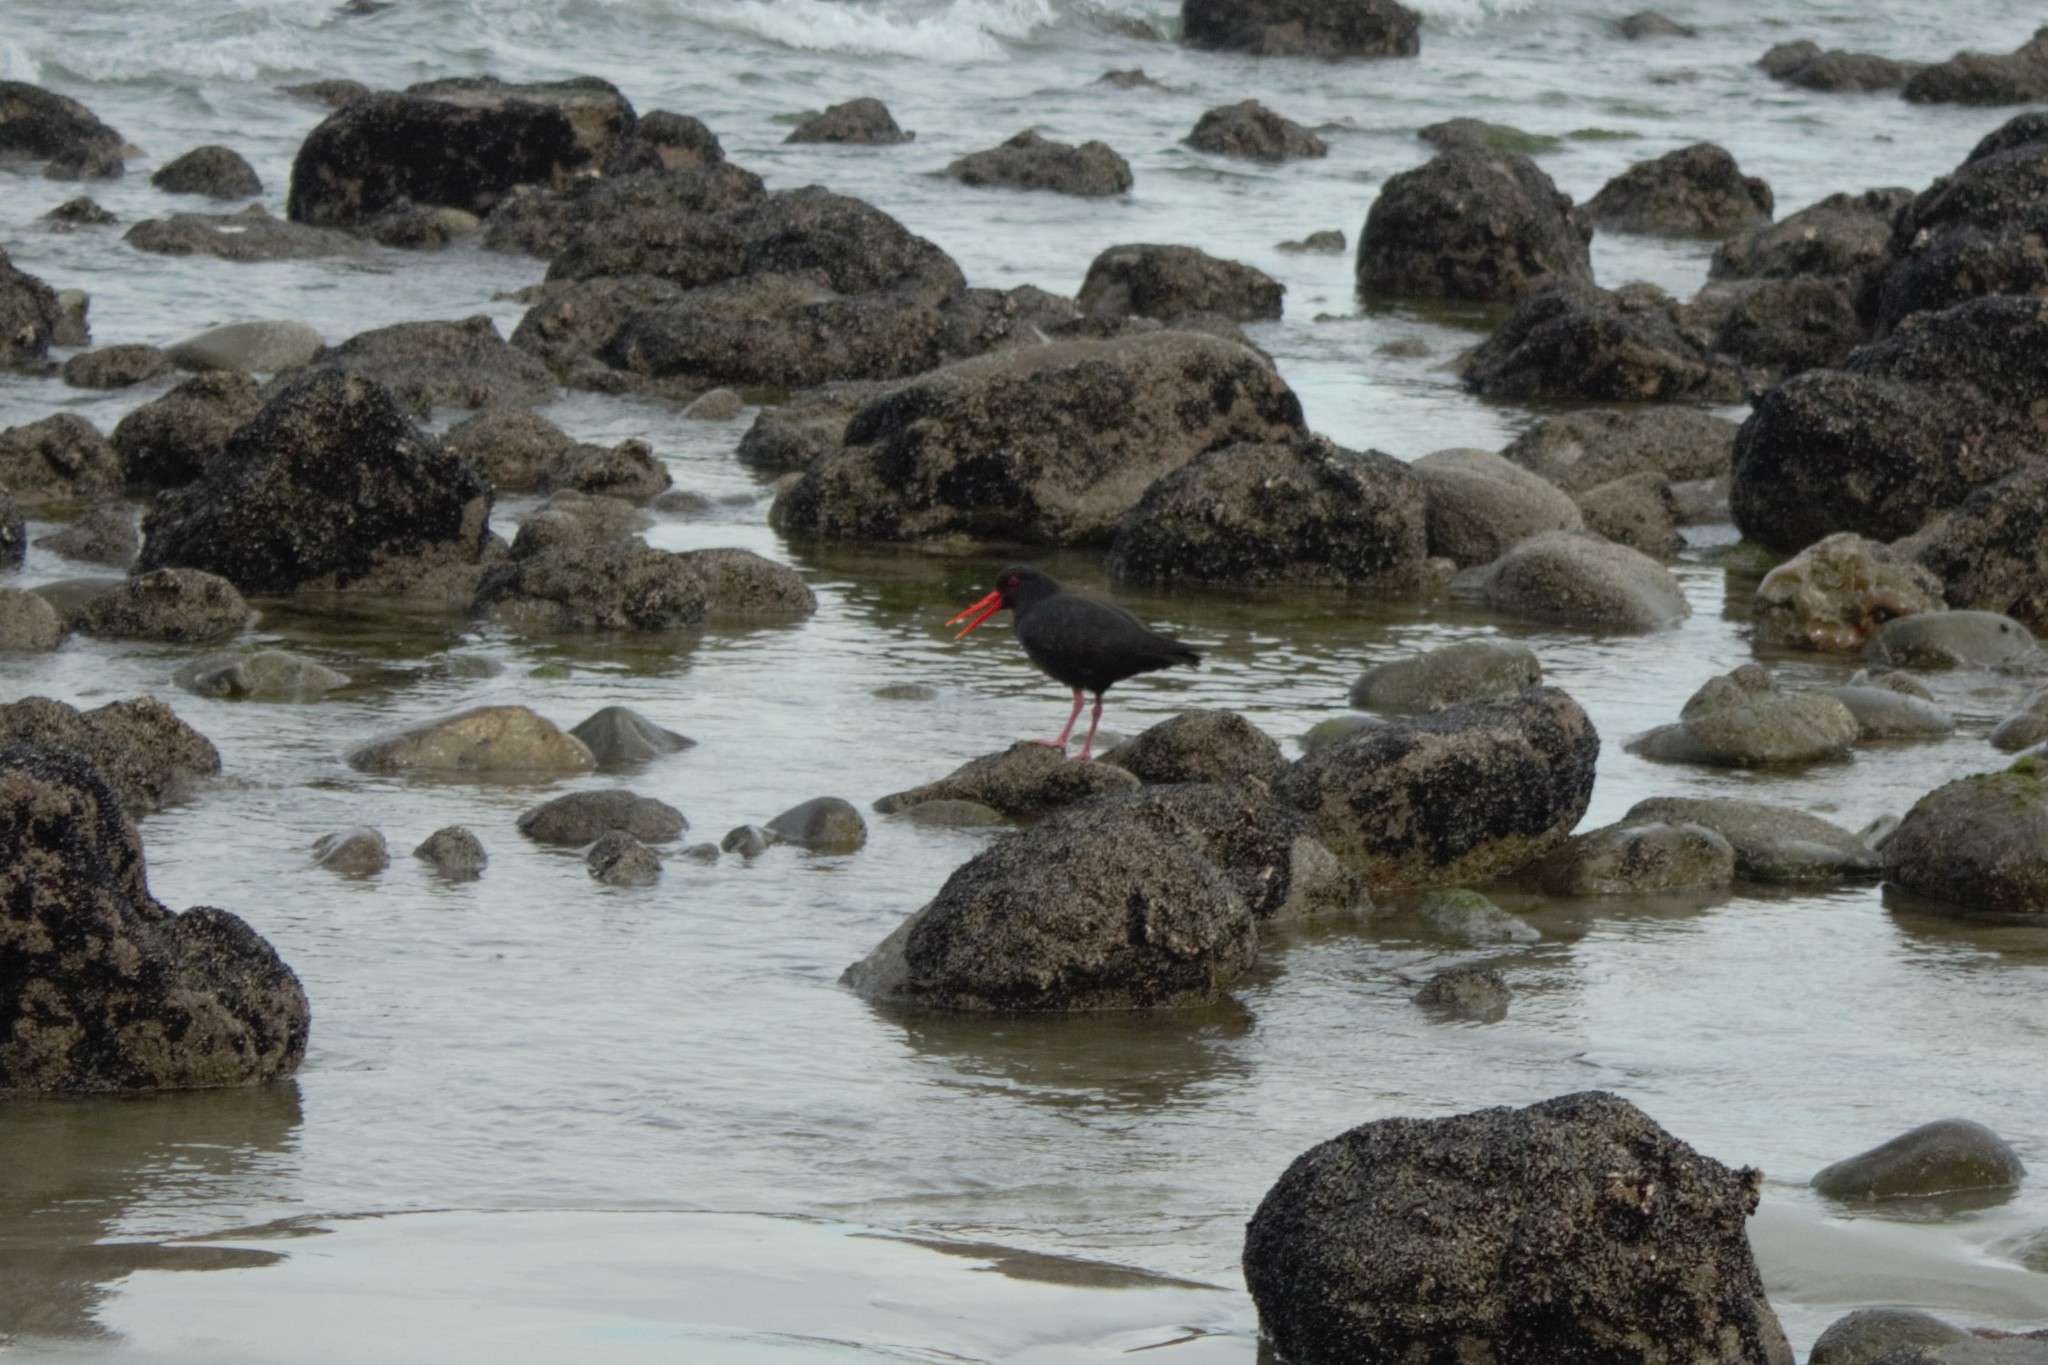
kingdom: Animalia
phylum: Chordata
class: Aves
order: Charadriiformes
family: Haematopodidae
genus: Haematopus
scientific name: Haematopus unicolor
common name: Variable oystercatcher
